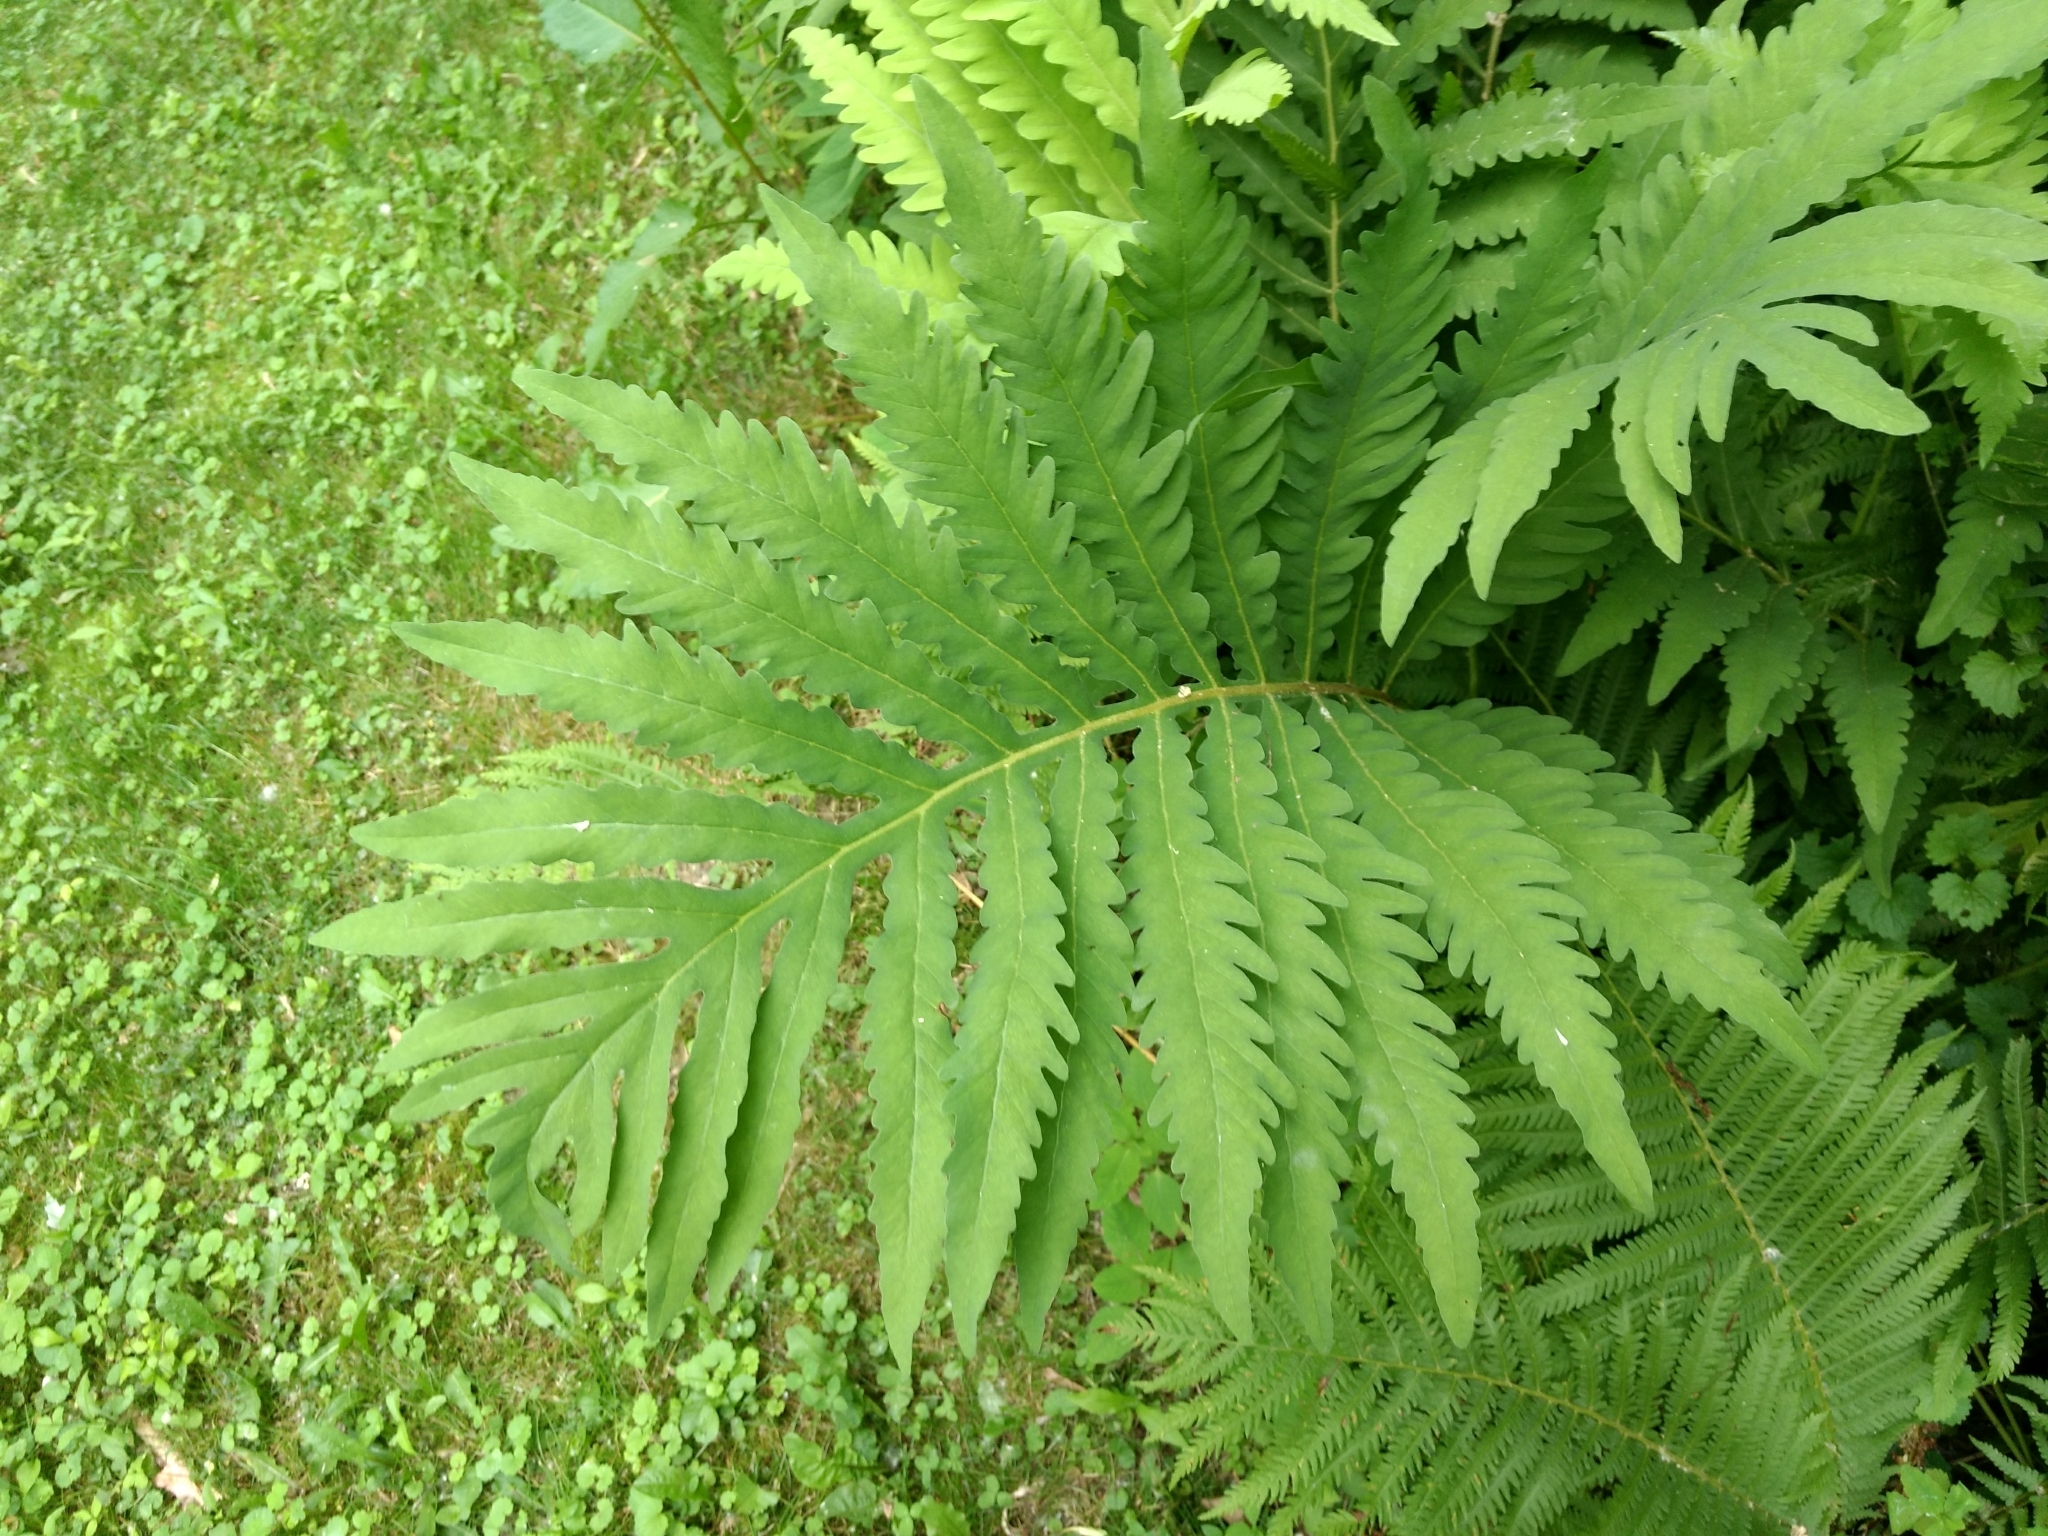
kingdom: Plantae
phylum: Tracheophyta
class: Polypodiopsida
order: Polypodiales
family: Onocleaceae
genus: Onoclea
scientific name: Onoclea sensibilis
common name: Sensitive fern
